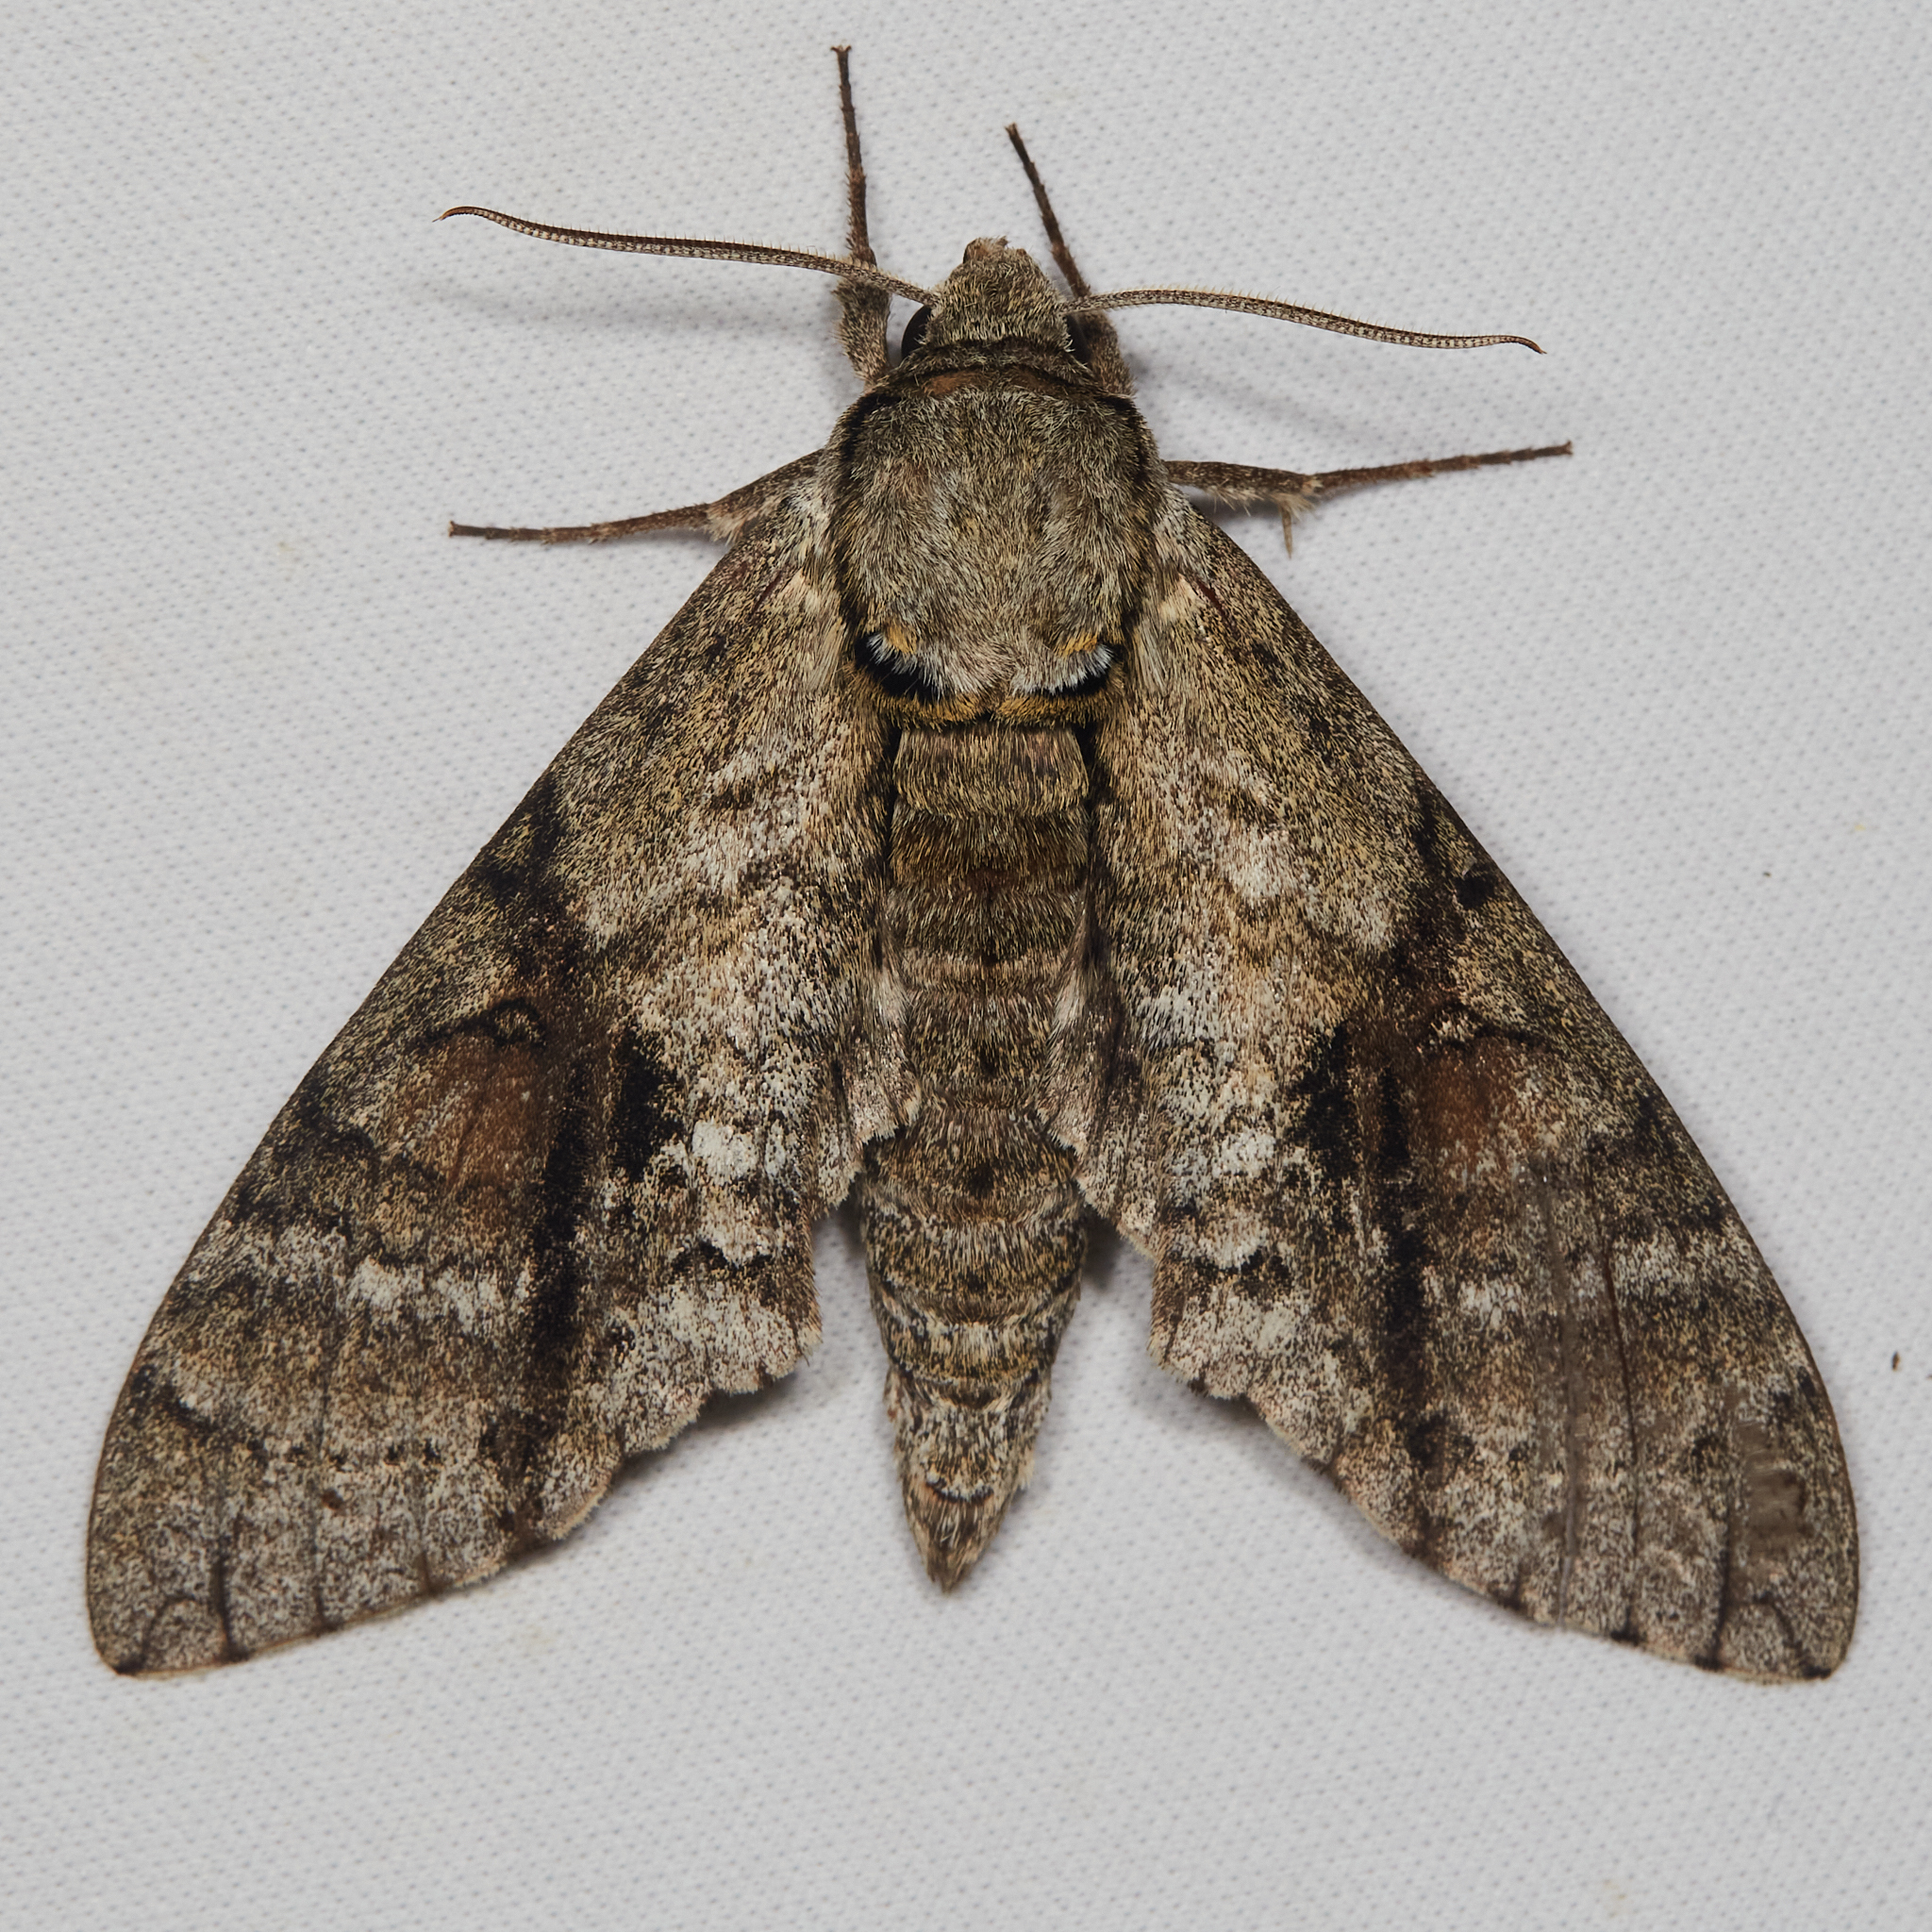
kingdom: Animalia
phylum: Arthropoda
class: Insecta
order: Lepidoptera
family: Sphingidae
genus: Manduca
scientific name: Manduca jasminearum
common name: Ash sphinx
